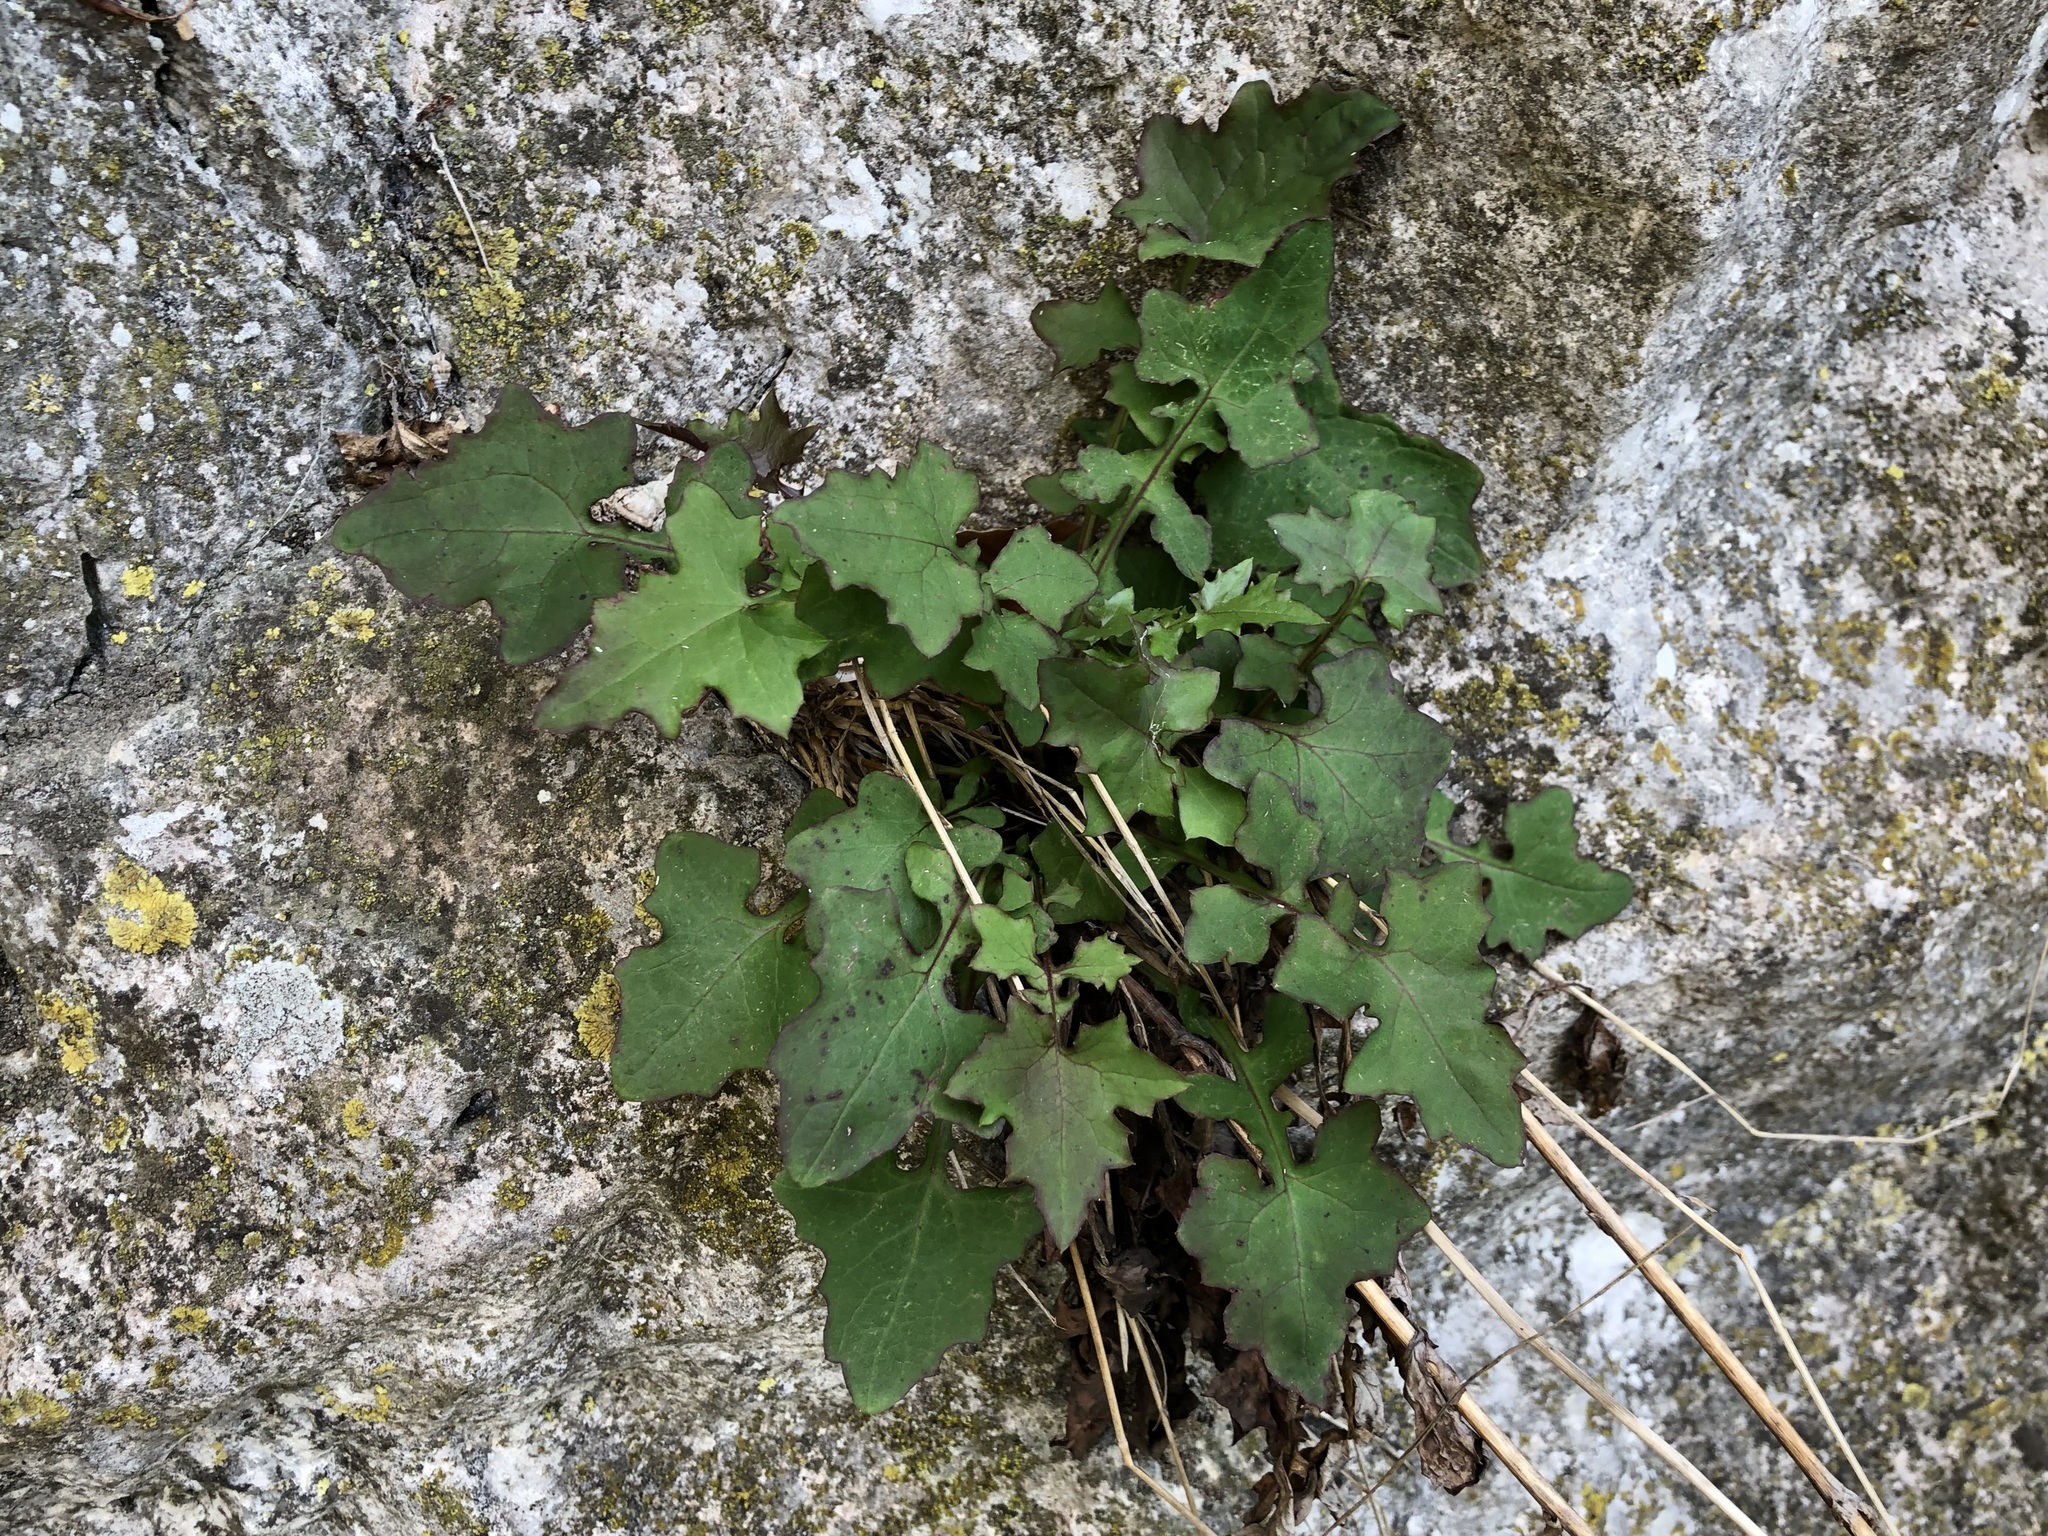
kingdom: Plantae
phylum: Tracheophyta
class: Magnoliopsida
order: Asterales
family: Asteraceae
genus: Mycelis
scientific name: Mycelis muralis
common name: Wall lettuce
